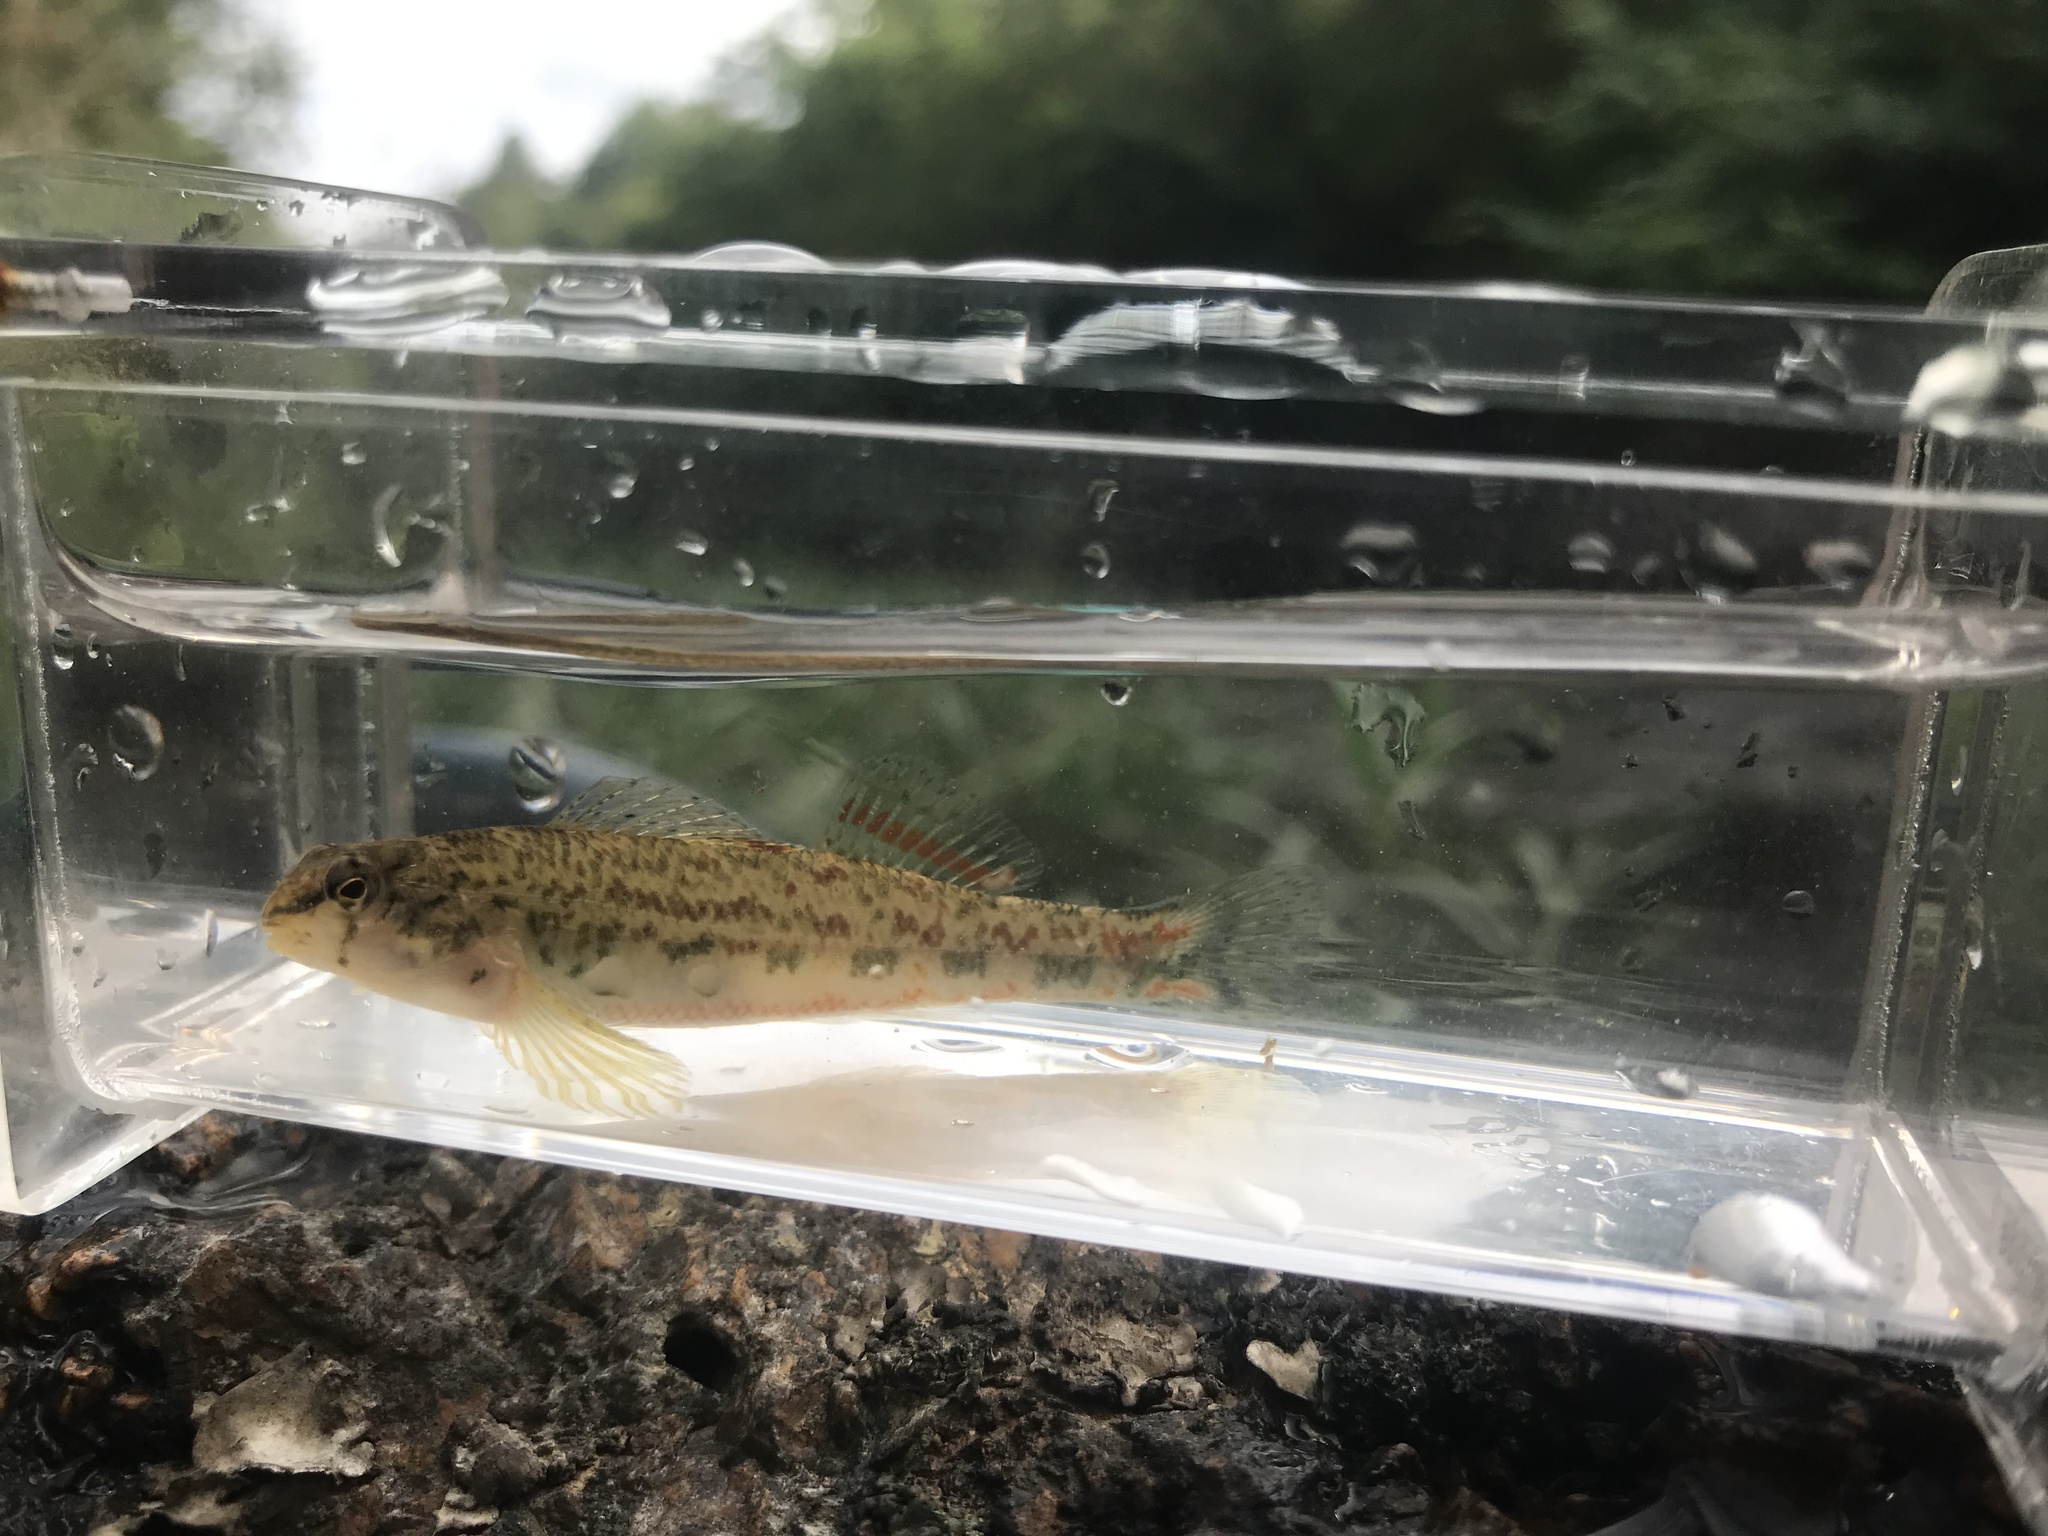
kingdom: Animalia
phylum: Chordata
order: Perciformes
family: Percidae
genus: Etheostoma
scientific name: Etheostoma ramseyi
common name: Alabama darter
